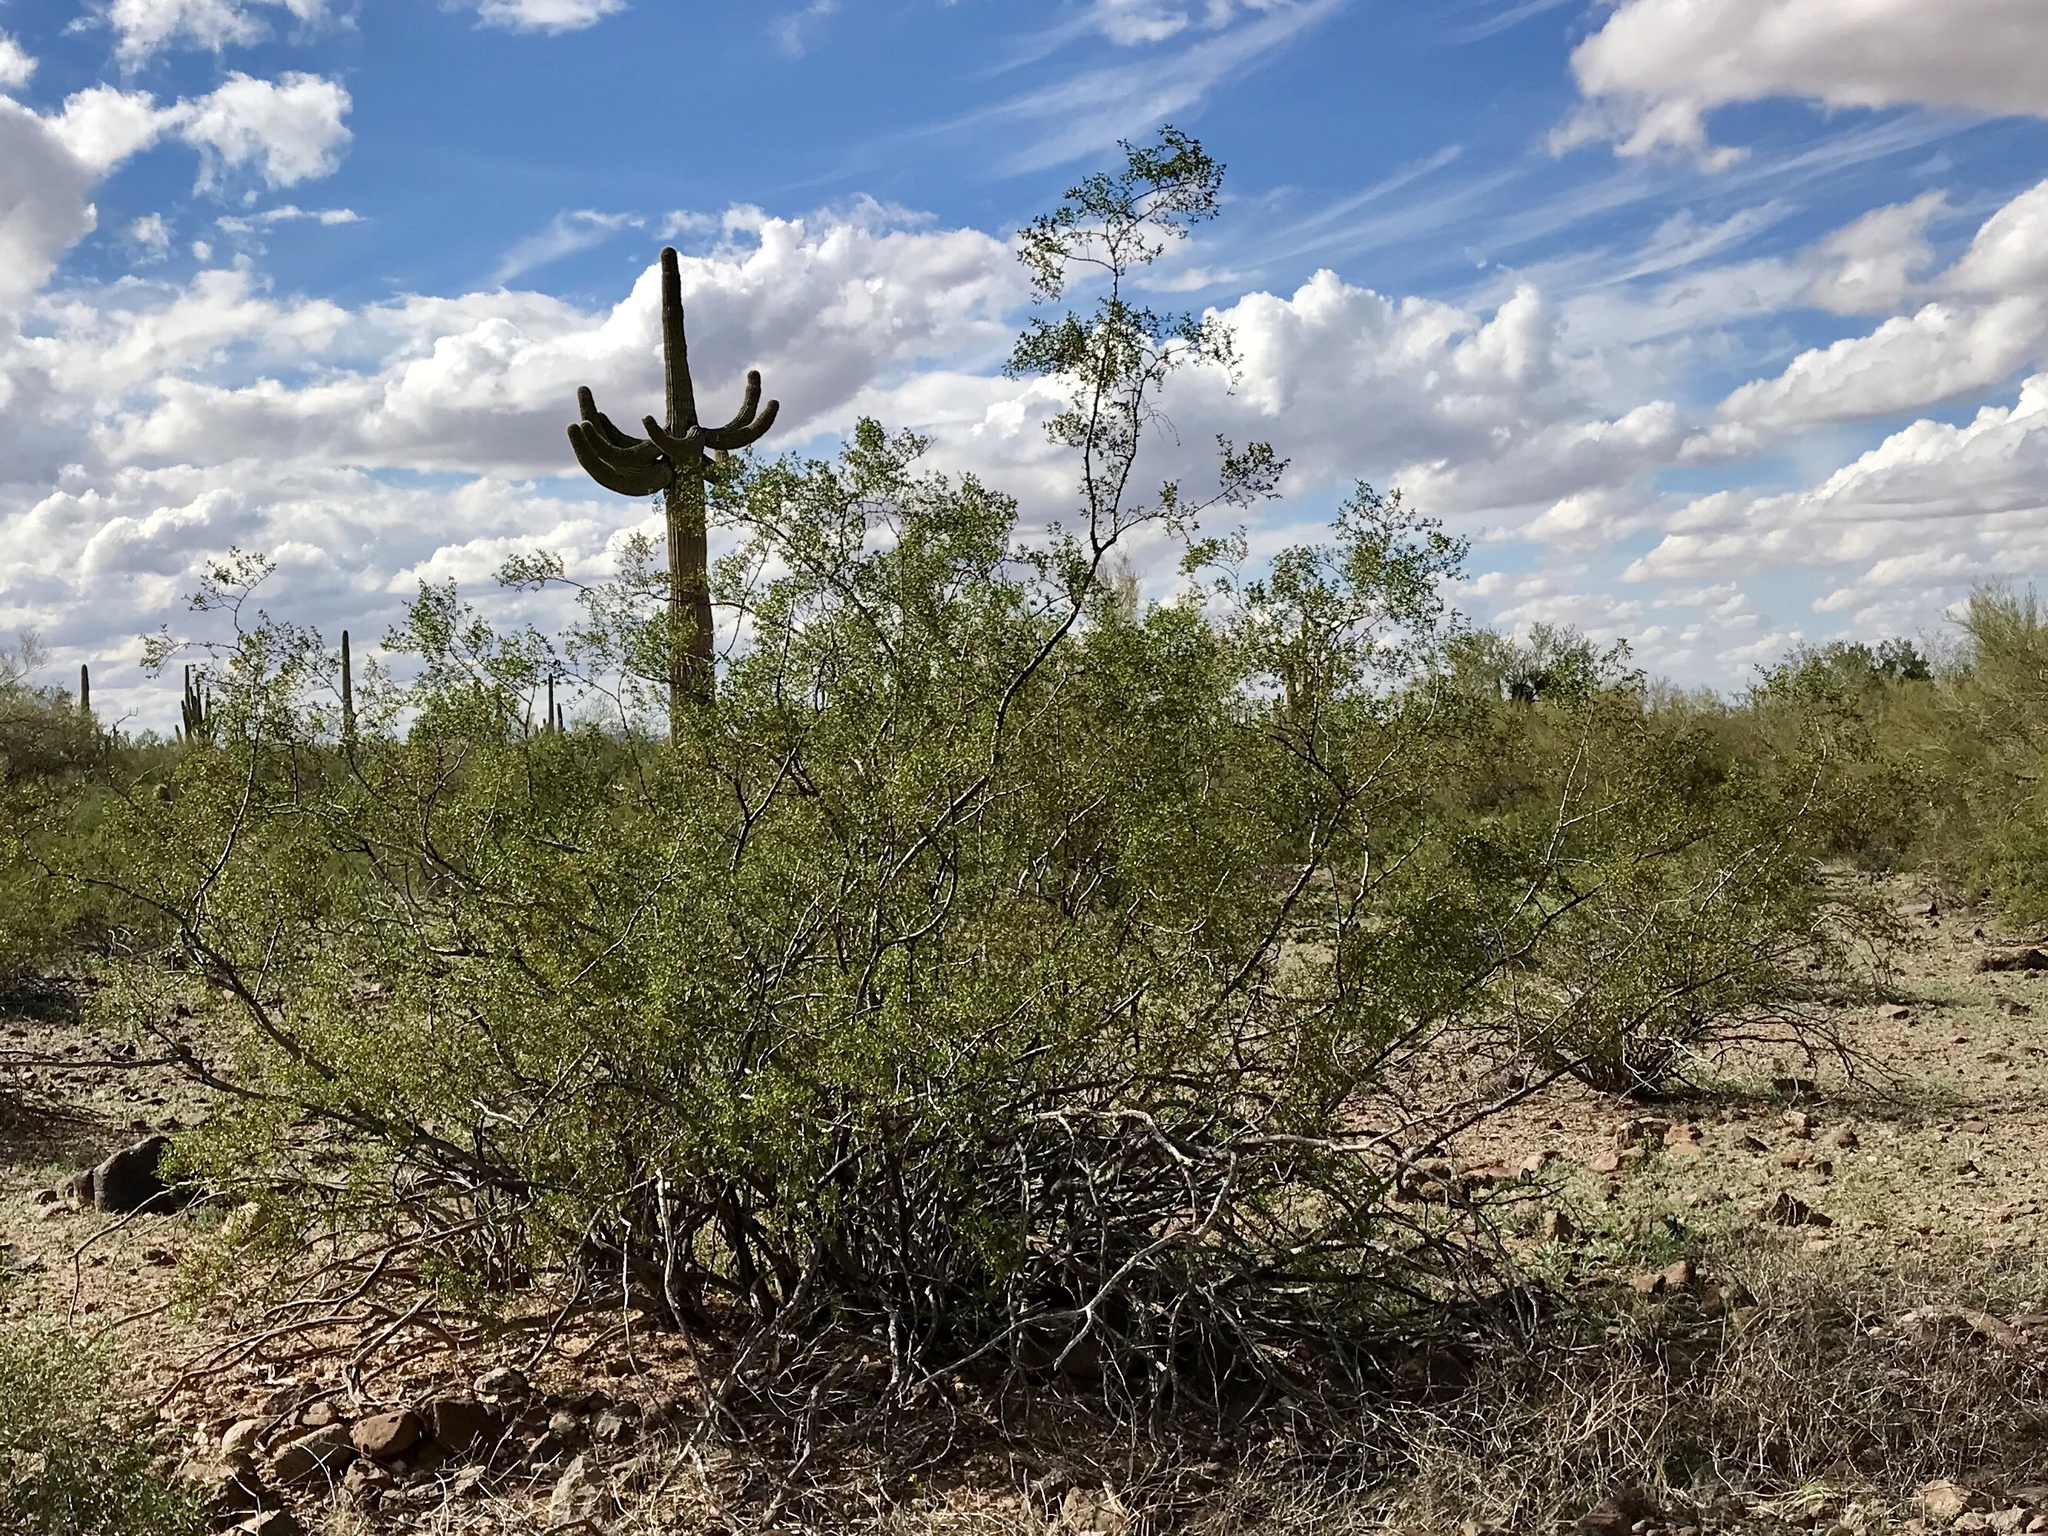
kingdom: Plantae
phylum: Tracheophyta
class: Magnoliopsida
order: Zygophyllales
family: Zygophyllaceae
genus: Larrea
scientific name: Larrea tridentata
